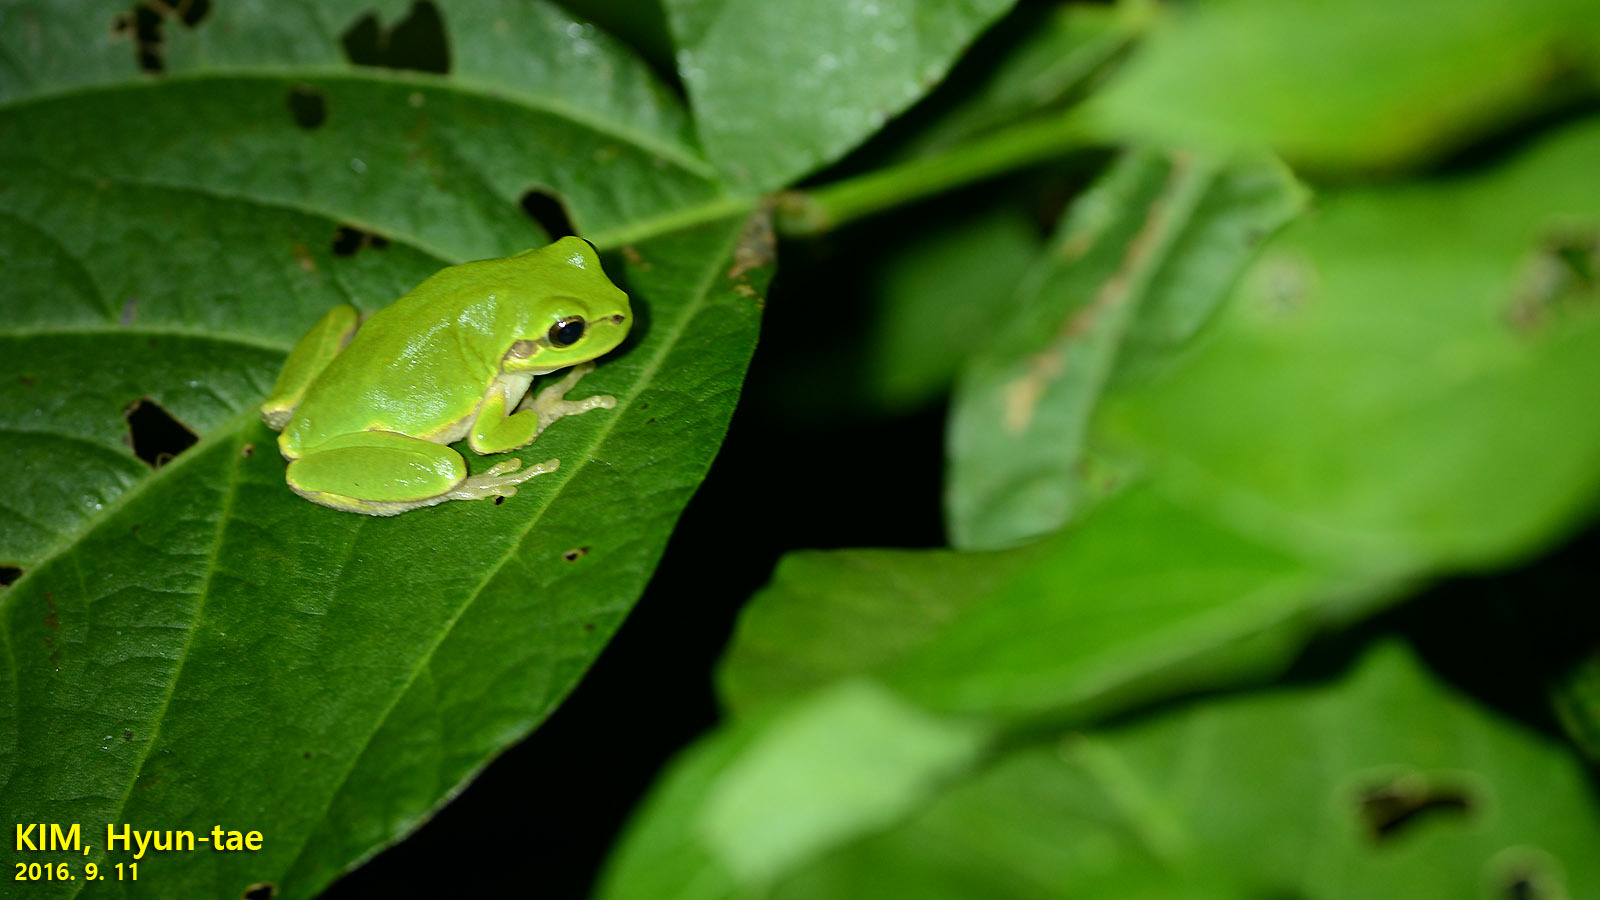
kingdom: Animalia
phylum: Chordata
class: Amphibia
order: Anura
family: Hylidae
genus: Dryophytes
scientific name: Dryophytes japonicus
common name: Japanese treefrog
